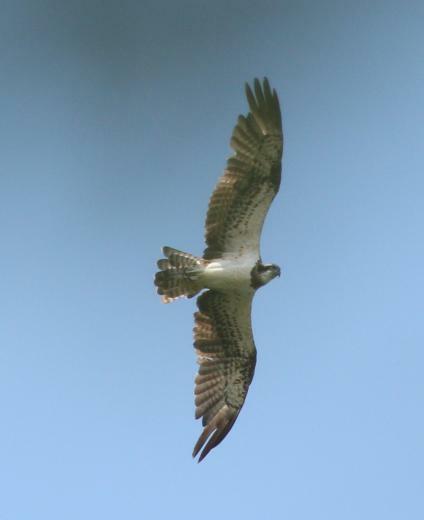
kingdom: Animalia
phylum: Chordata
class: Aves
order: Accipitriformes
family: Pandionidae
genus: Pandion
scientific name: Pandion haliaetus
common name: Osprey
